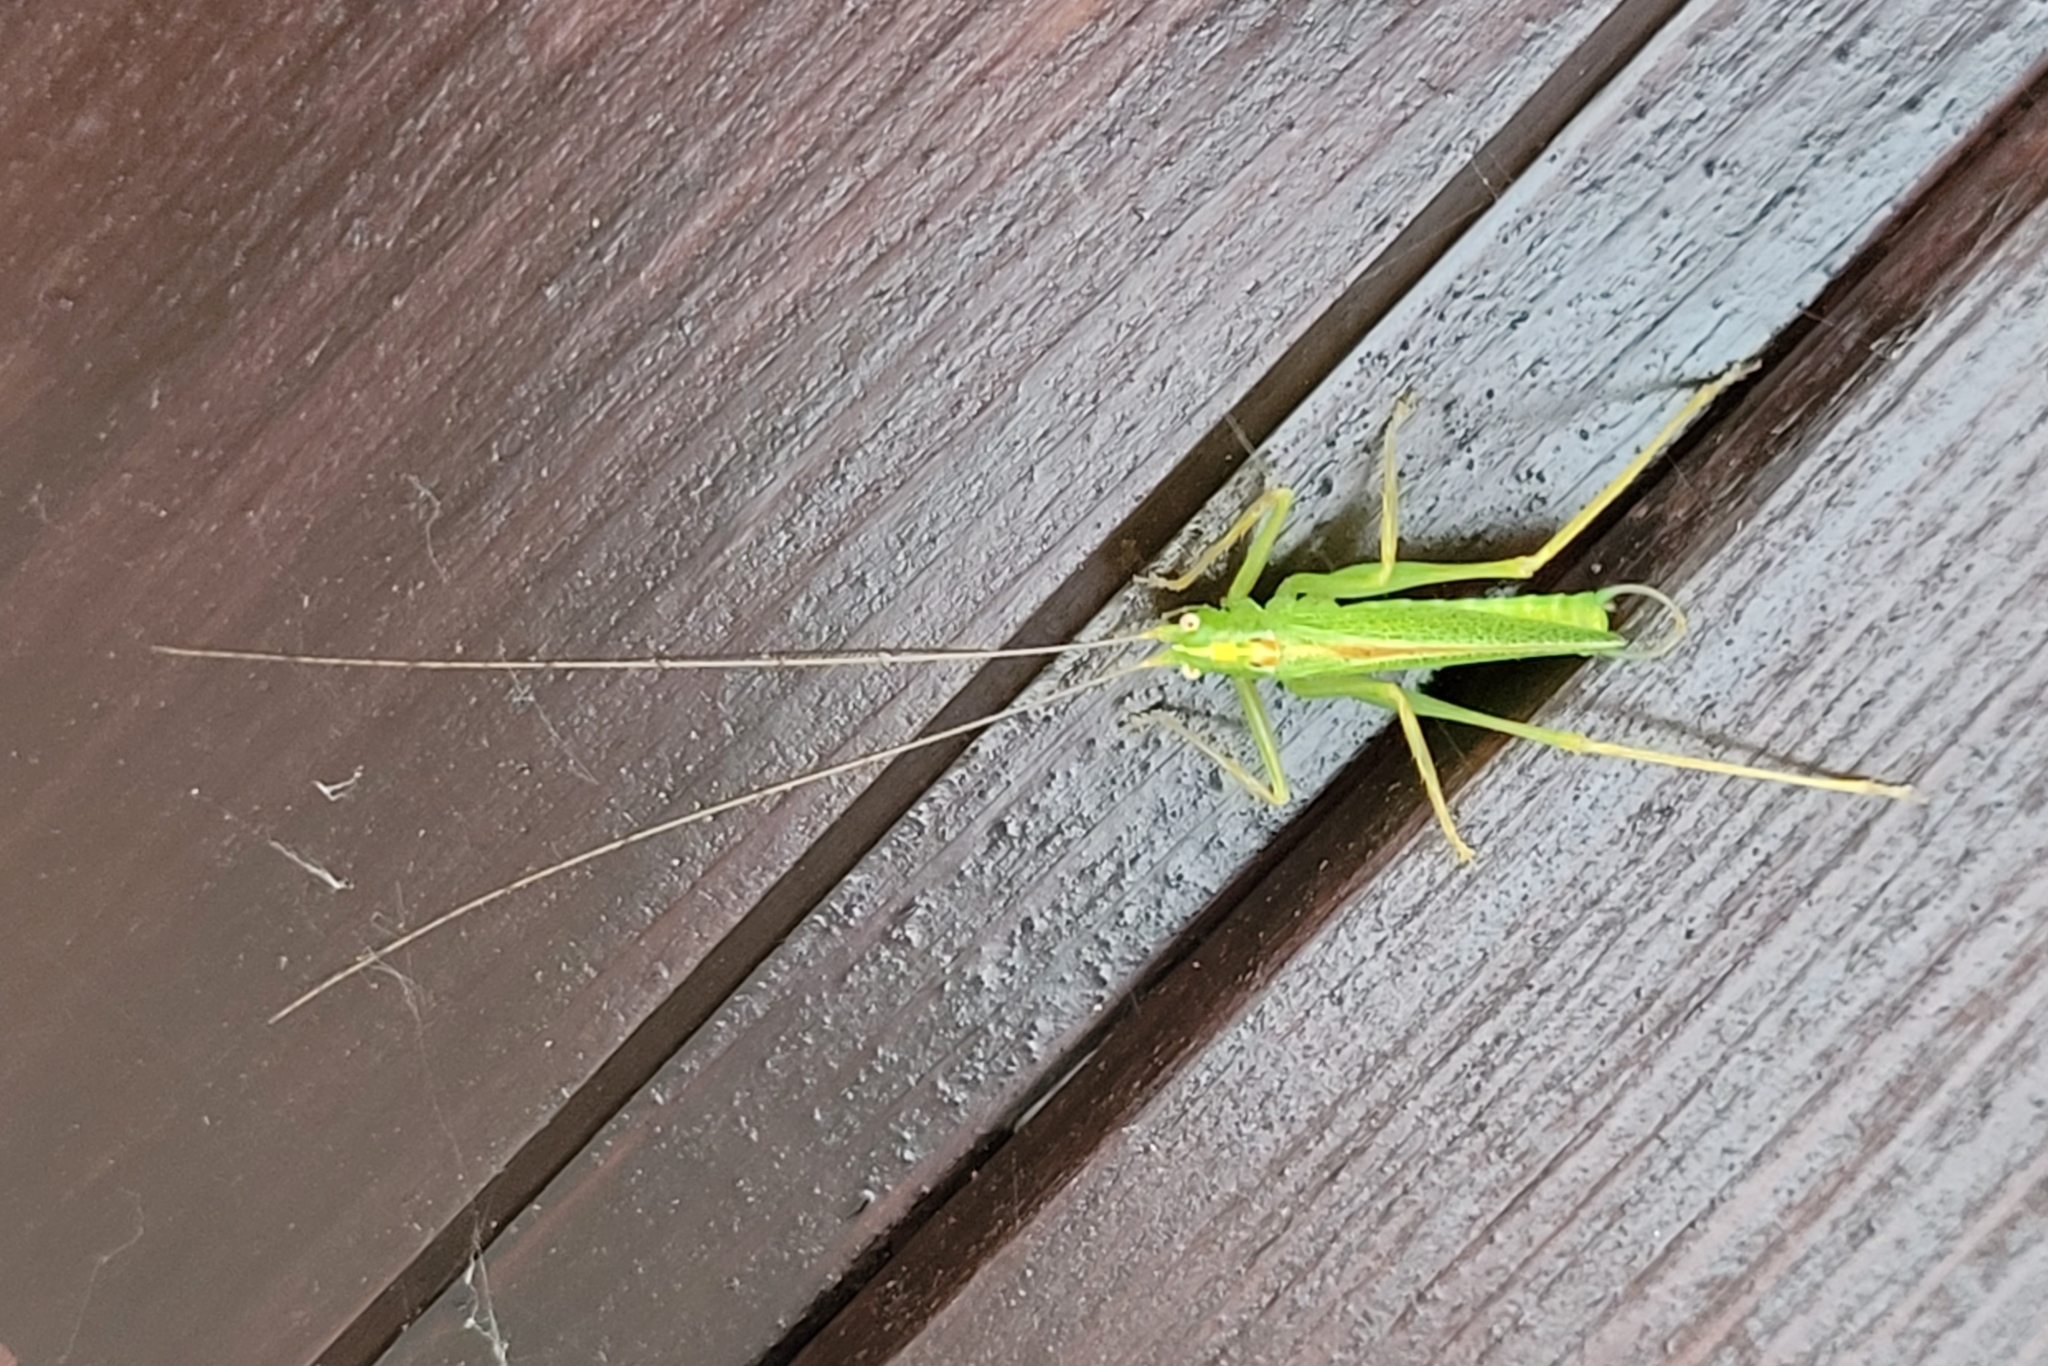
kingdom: Animalia
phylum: Arthropoda
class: Insecta
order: Orthoptera
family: Tettigoniidae
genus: Meconema
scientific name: Meconema thalassinum
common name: Oak bush-cricket
